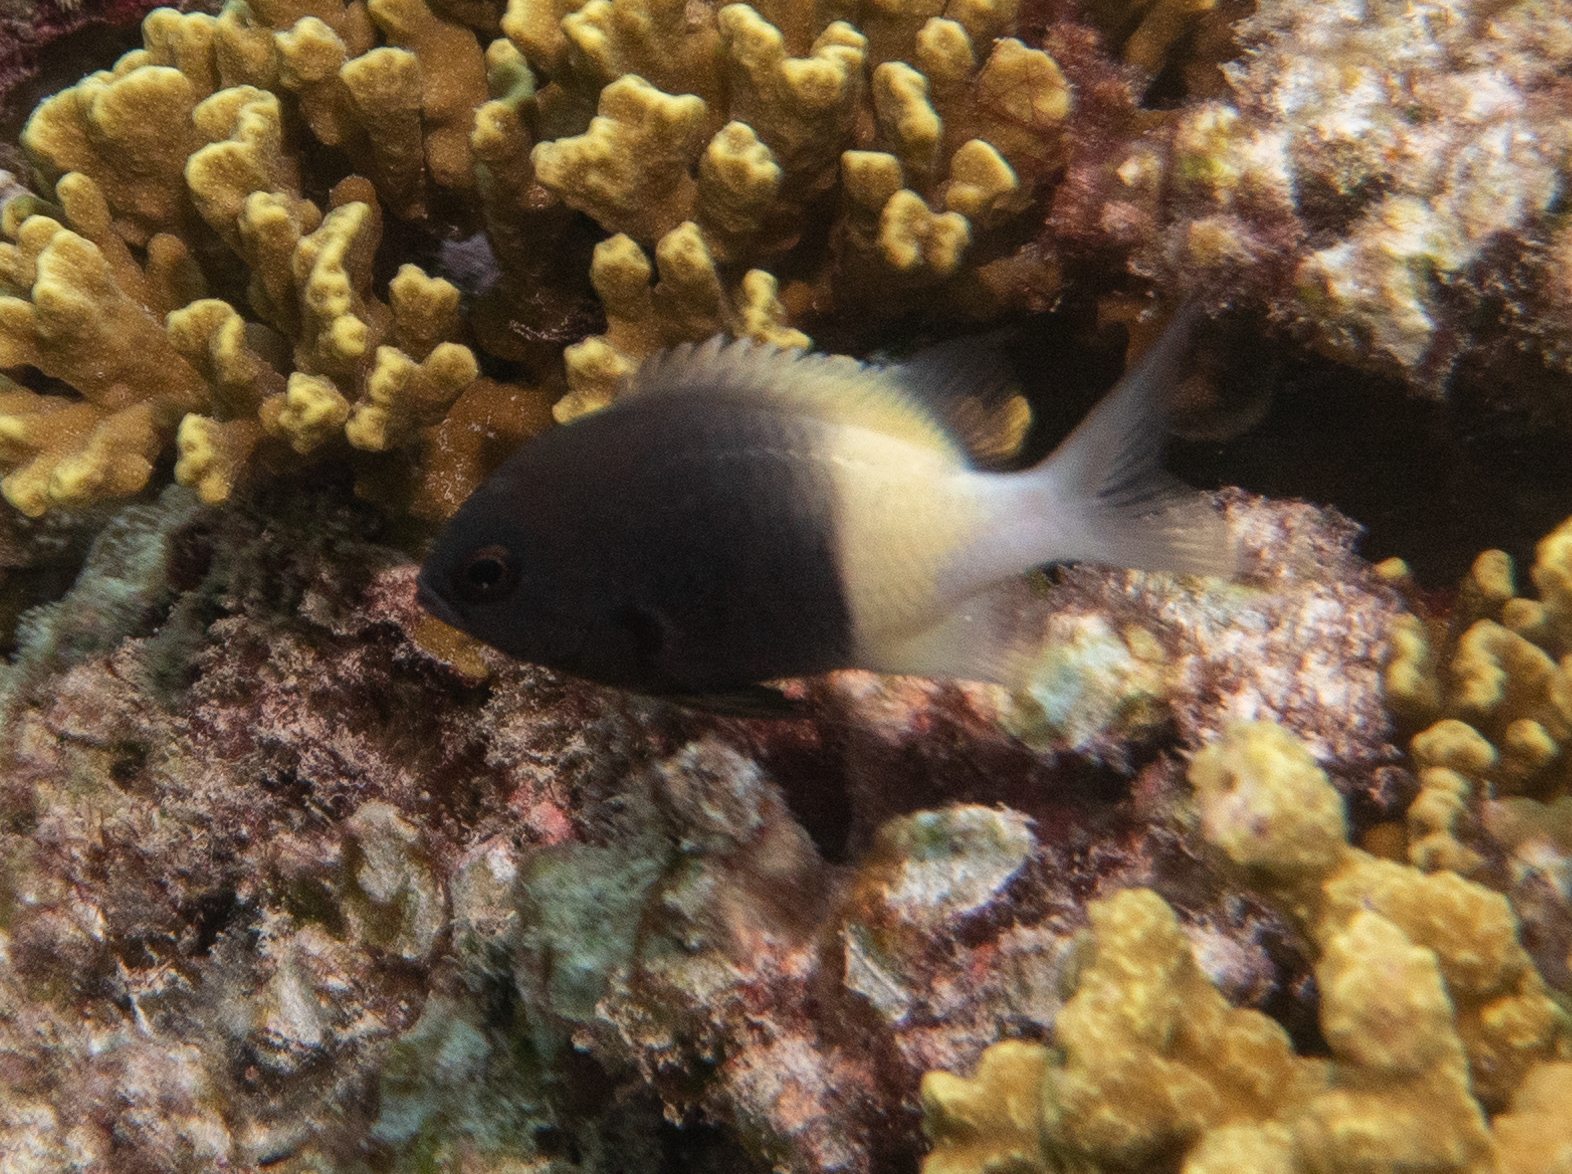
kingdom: Animalia
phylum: Chordata
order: Perciformes
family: Pomacentridae
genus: Chromis
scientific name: Chromis fieldi
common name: Chocolatedip chromis
